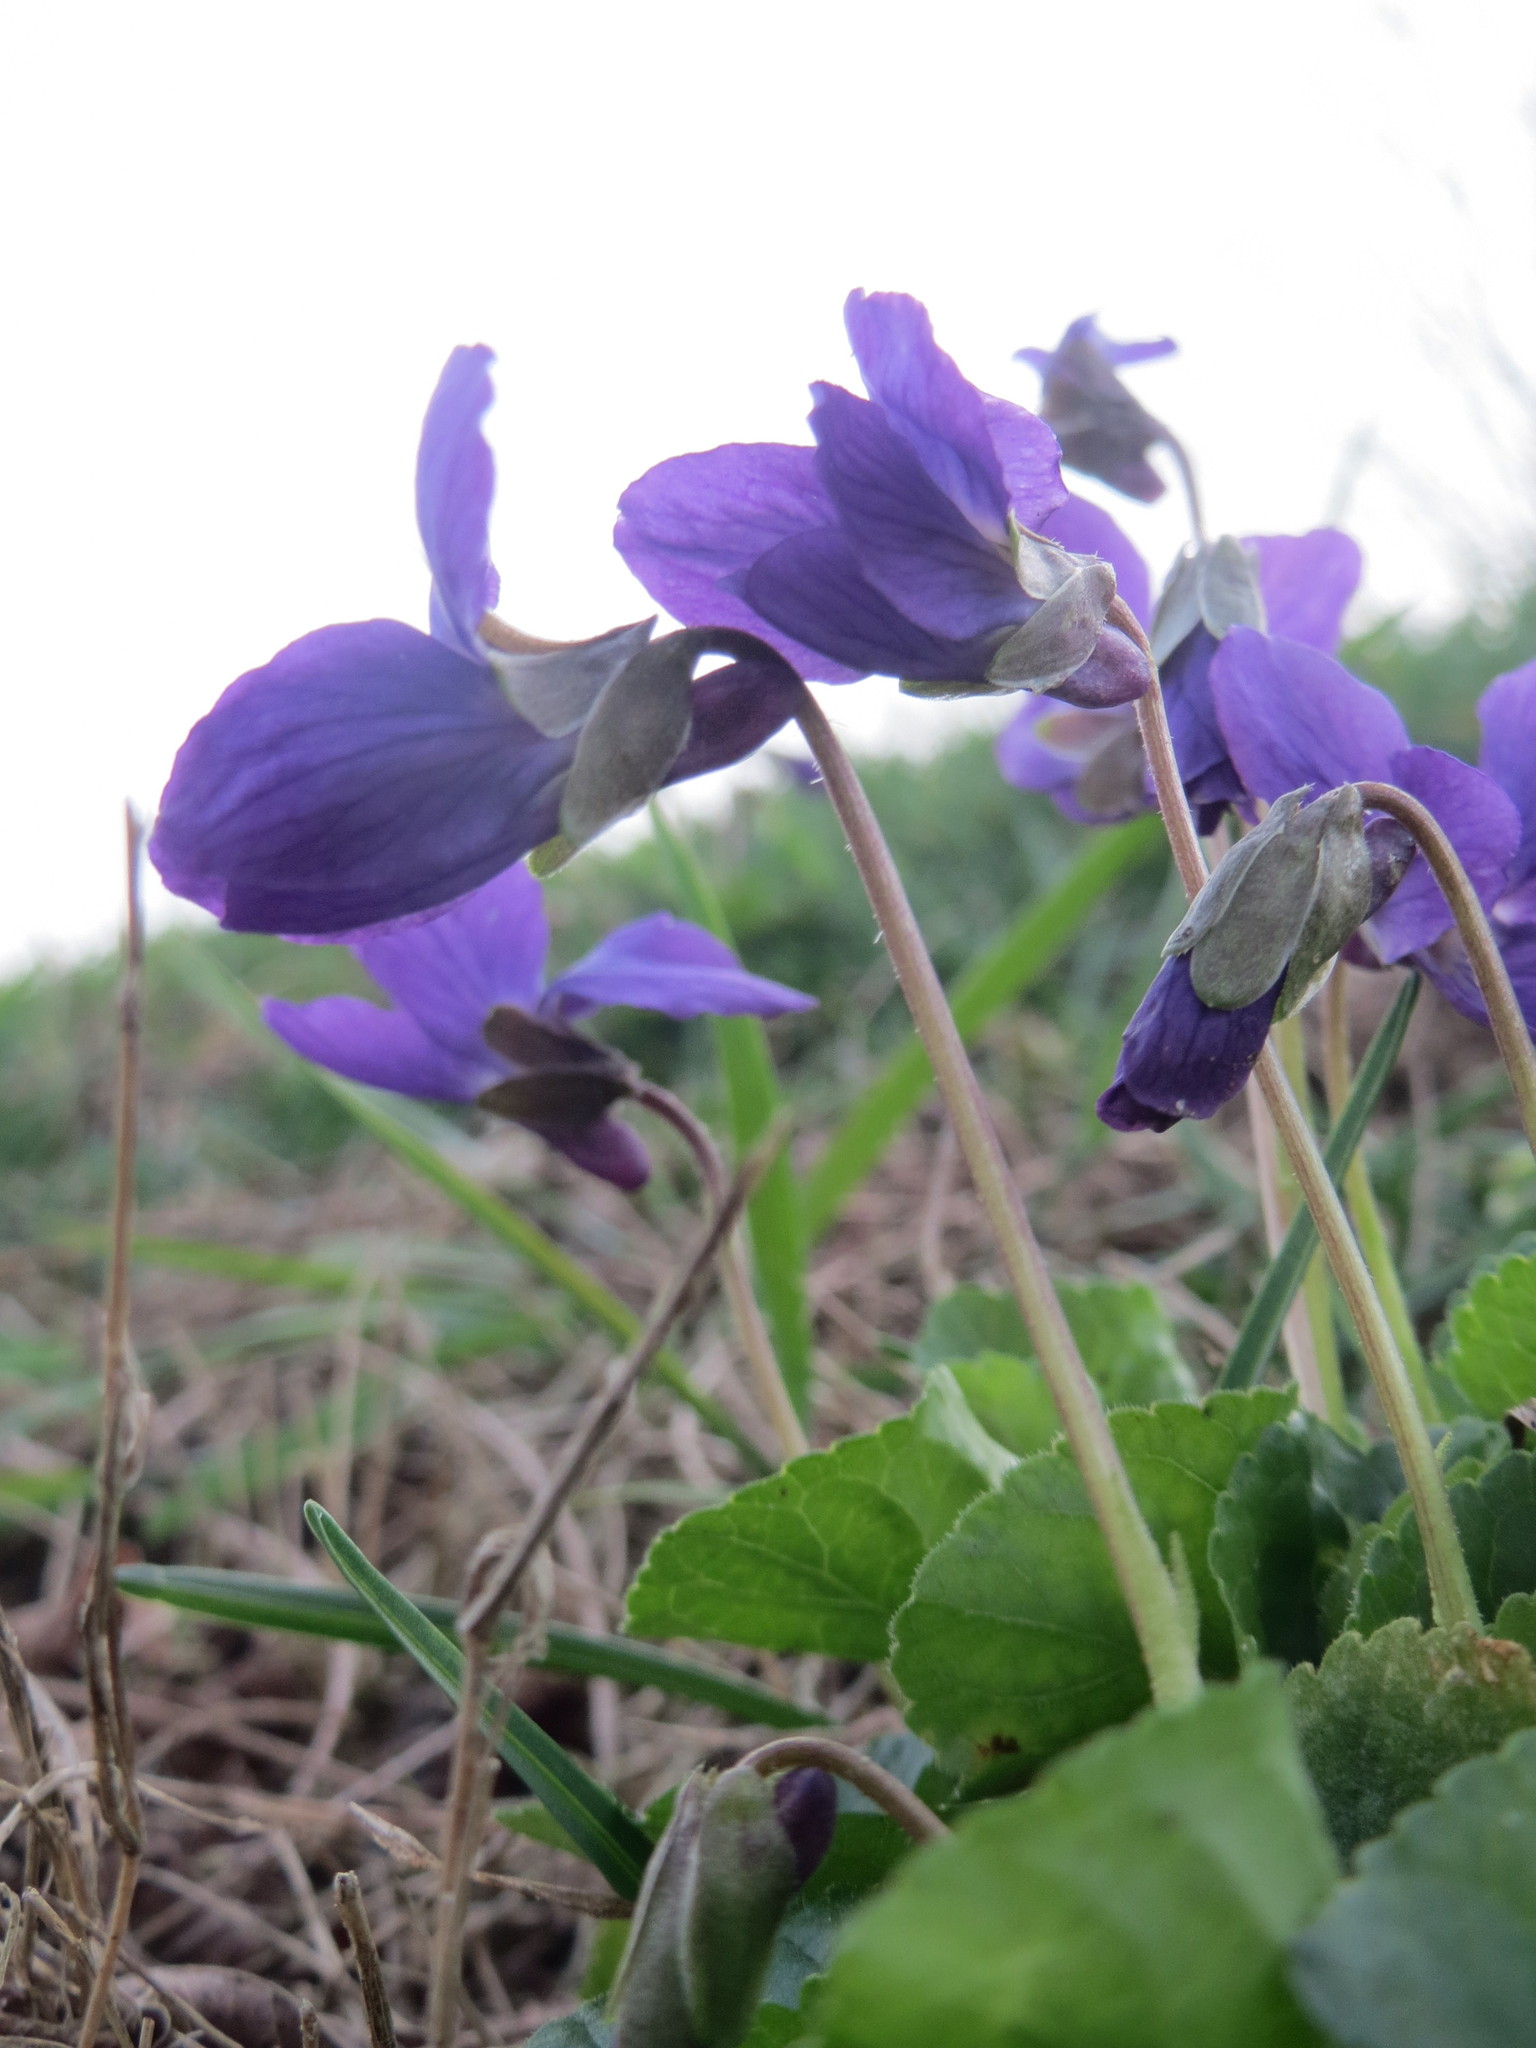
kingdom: Plantae
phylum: Tracheophyta
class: Magnoliopsida
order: Malpighiales
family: Violaceae
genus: Viola
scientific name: Viola odorata
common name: Sweet violet
